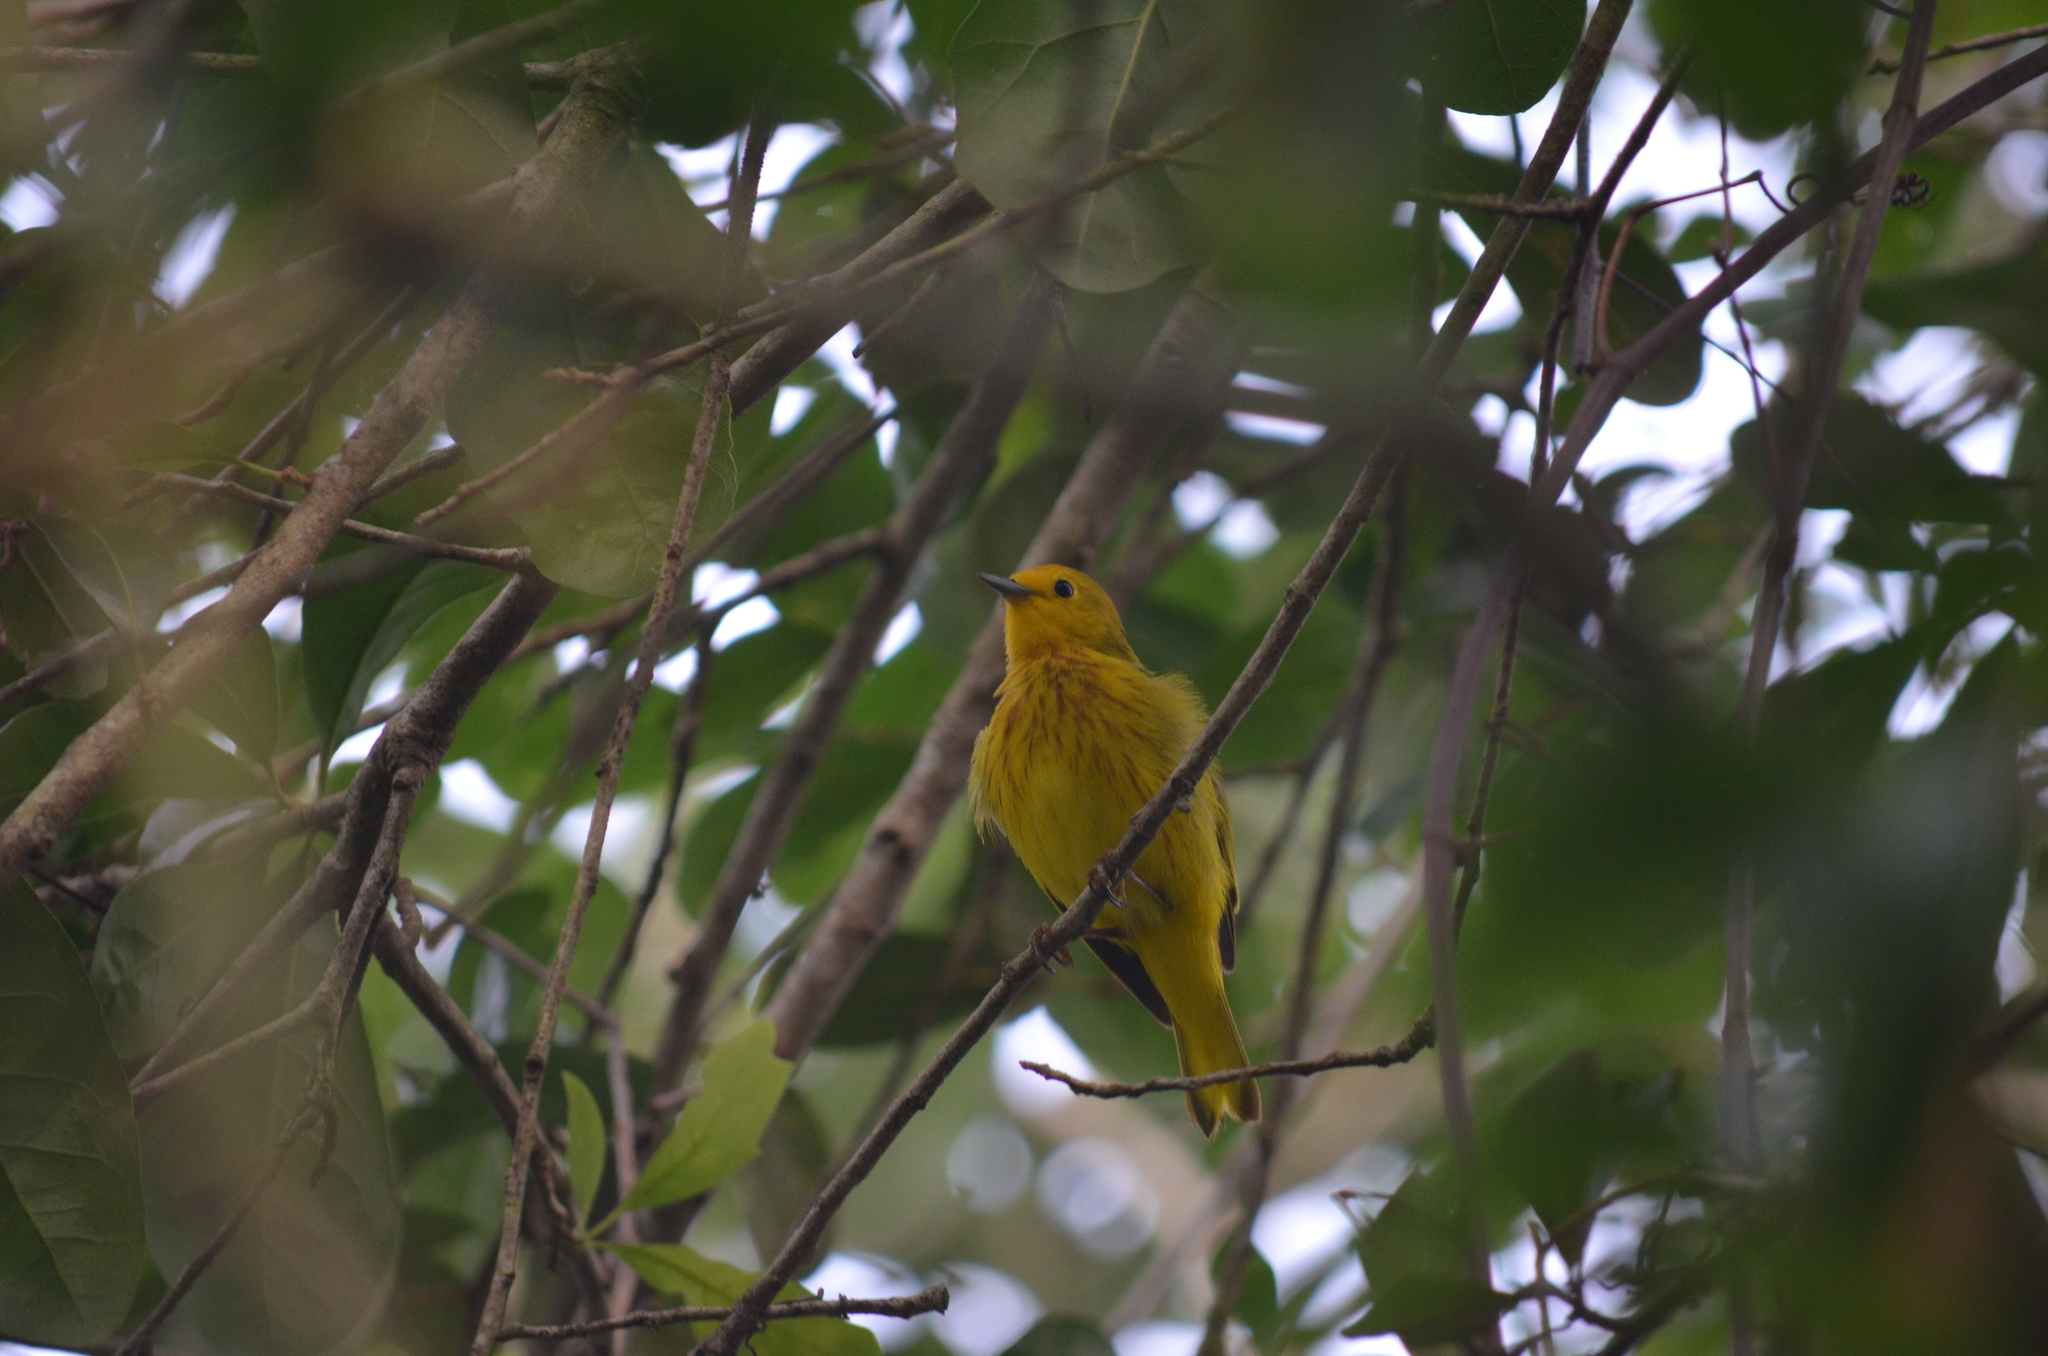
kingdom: Animalia
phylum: Chordata
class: Aves
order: Passeriformes
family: Parulidae
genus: Setophaga
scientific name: Setophaga petechia
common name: Yellow warbler
